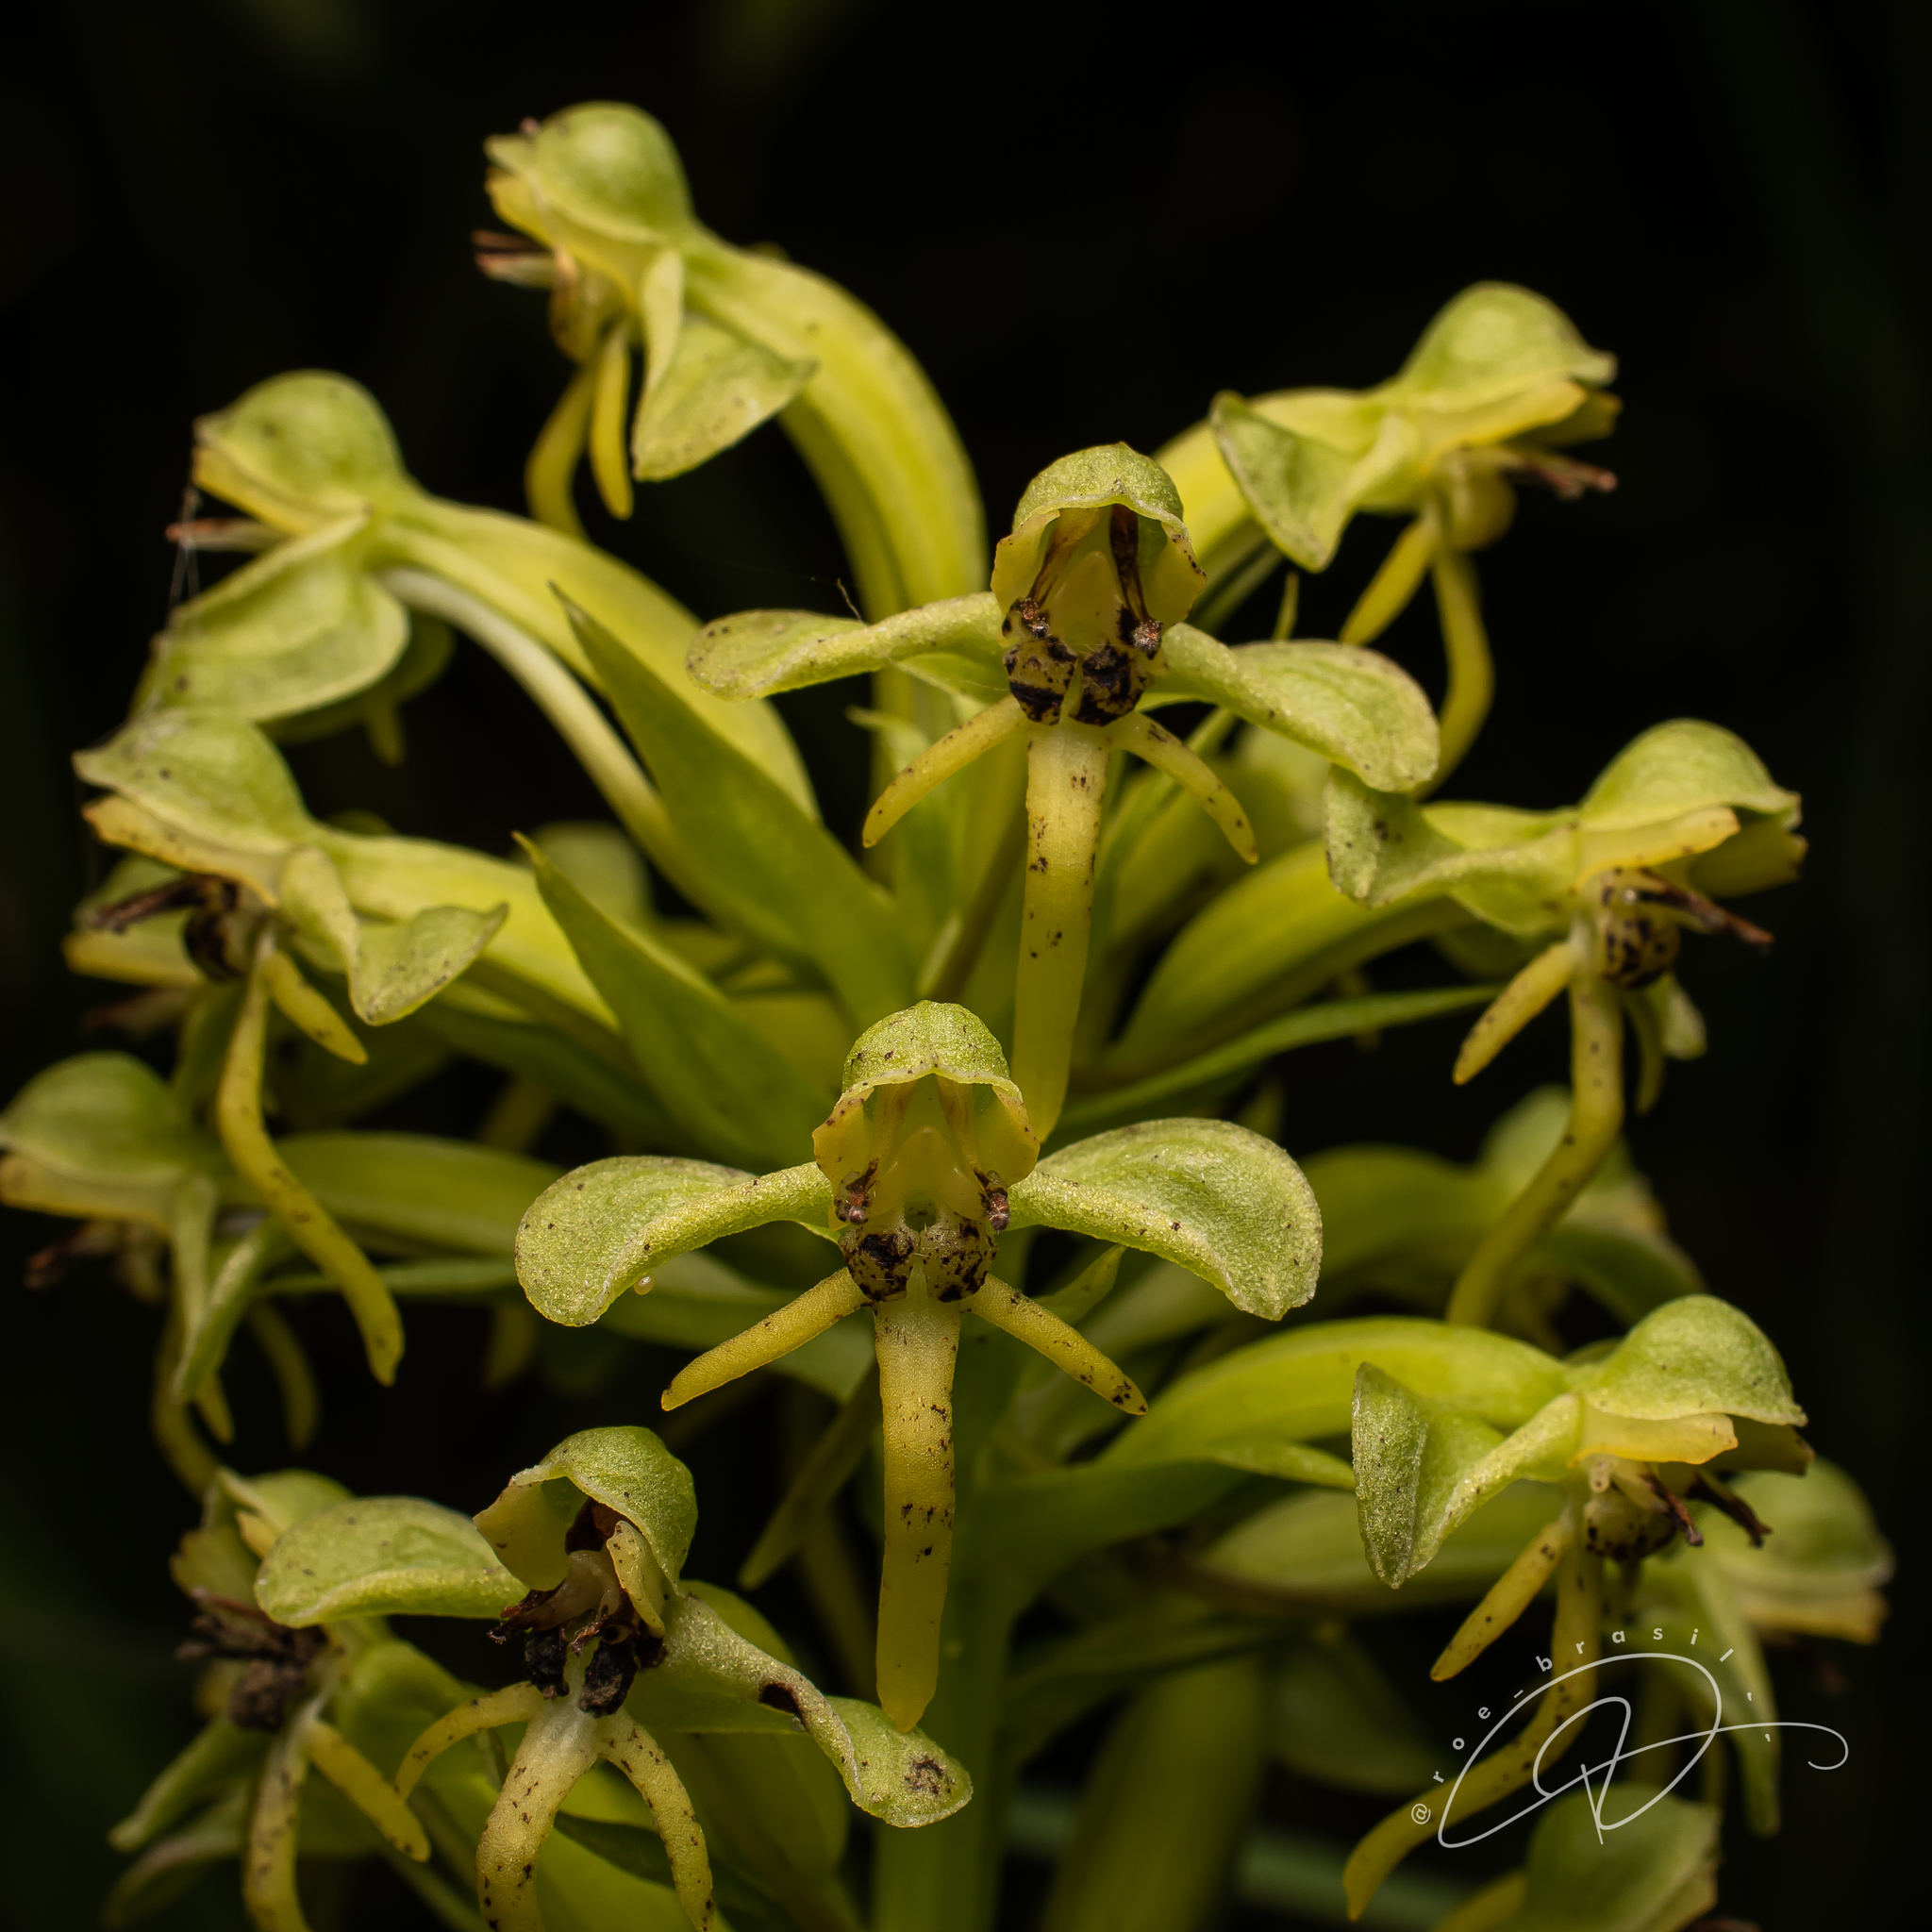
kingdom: Plantae
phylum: Tracheophyta
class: Liliopsida
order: Asparagales
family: Orchidaceae
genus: Habenaria
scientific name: Habenaria pleiophylla
